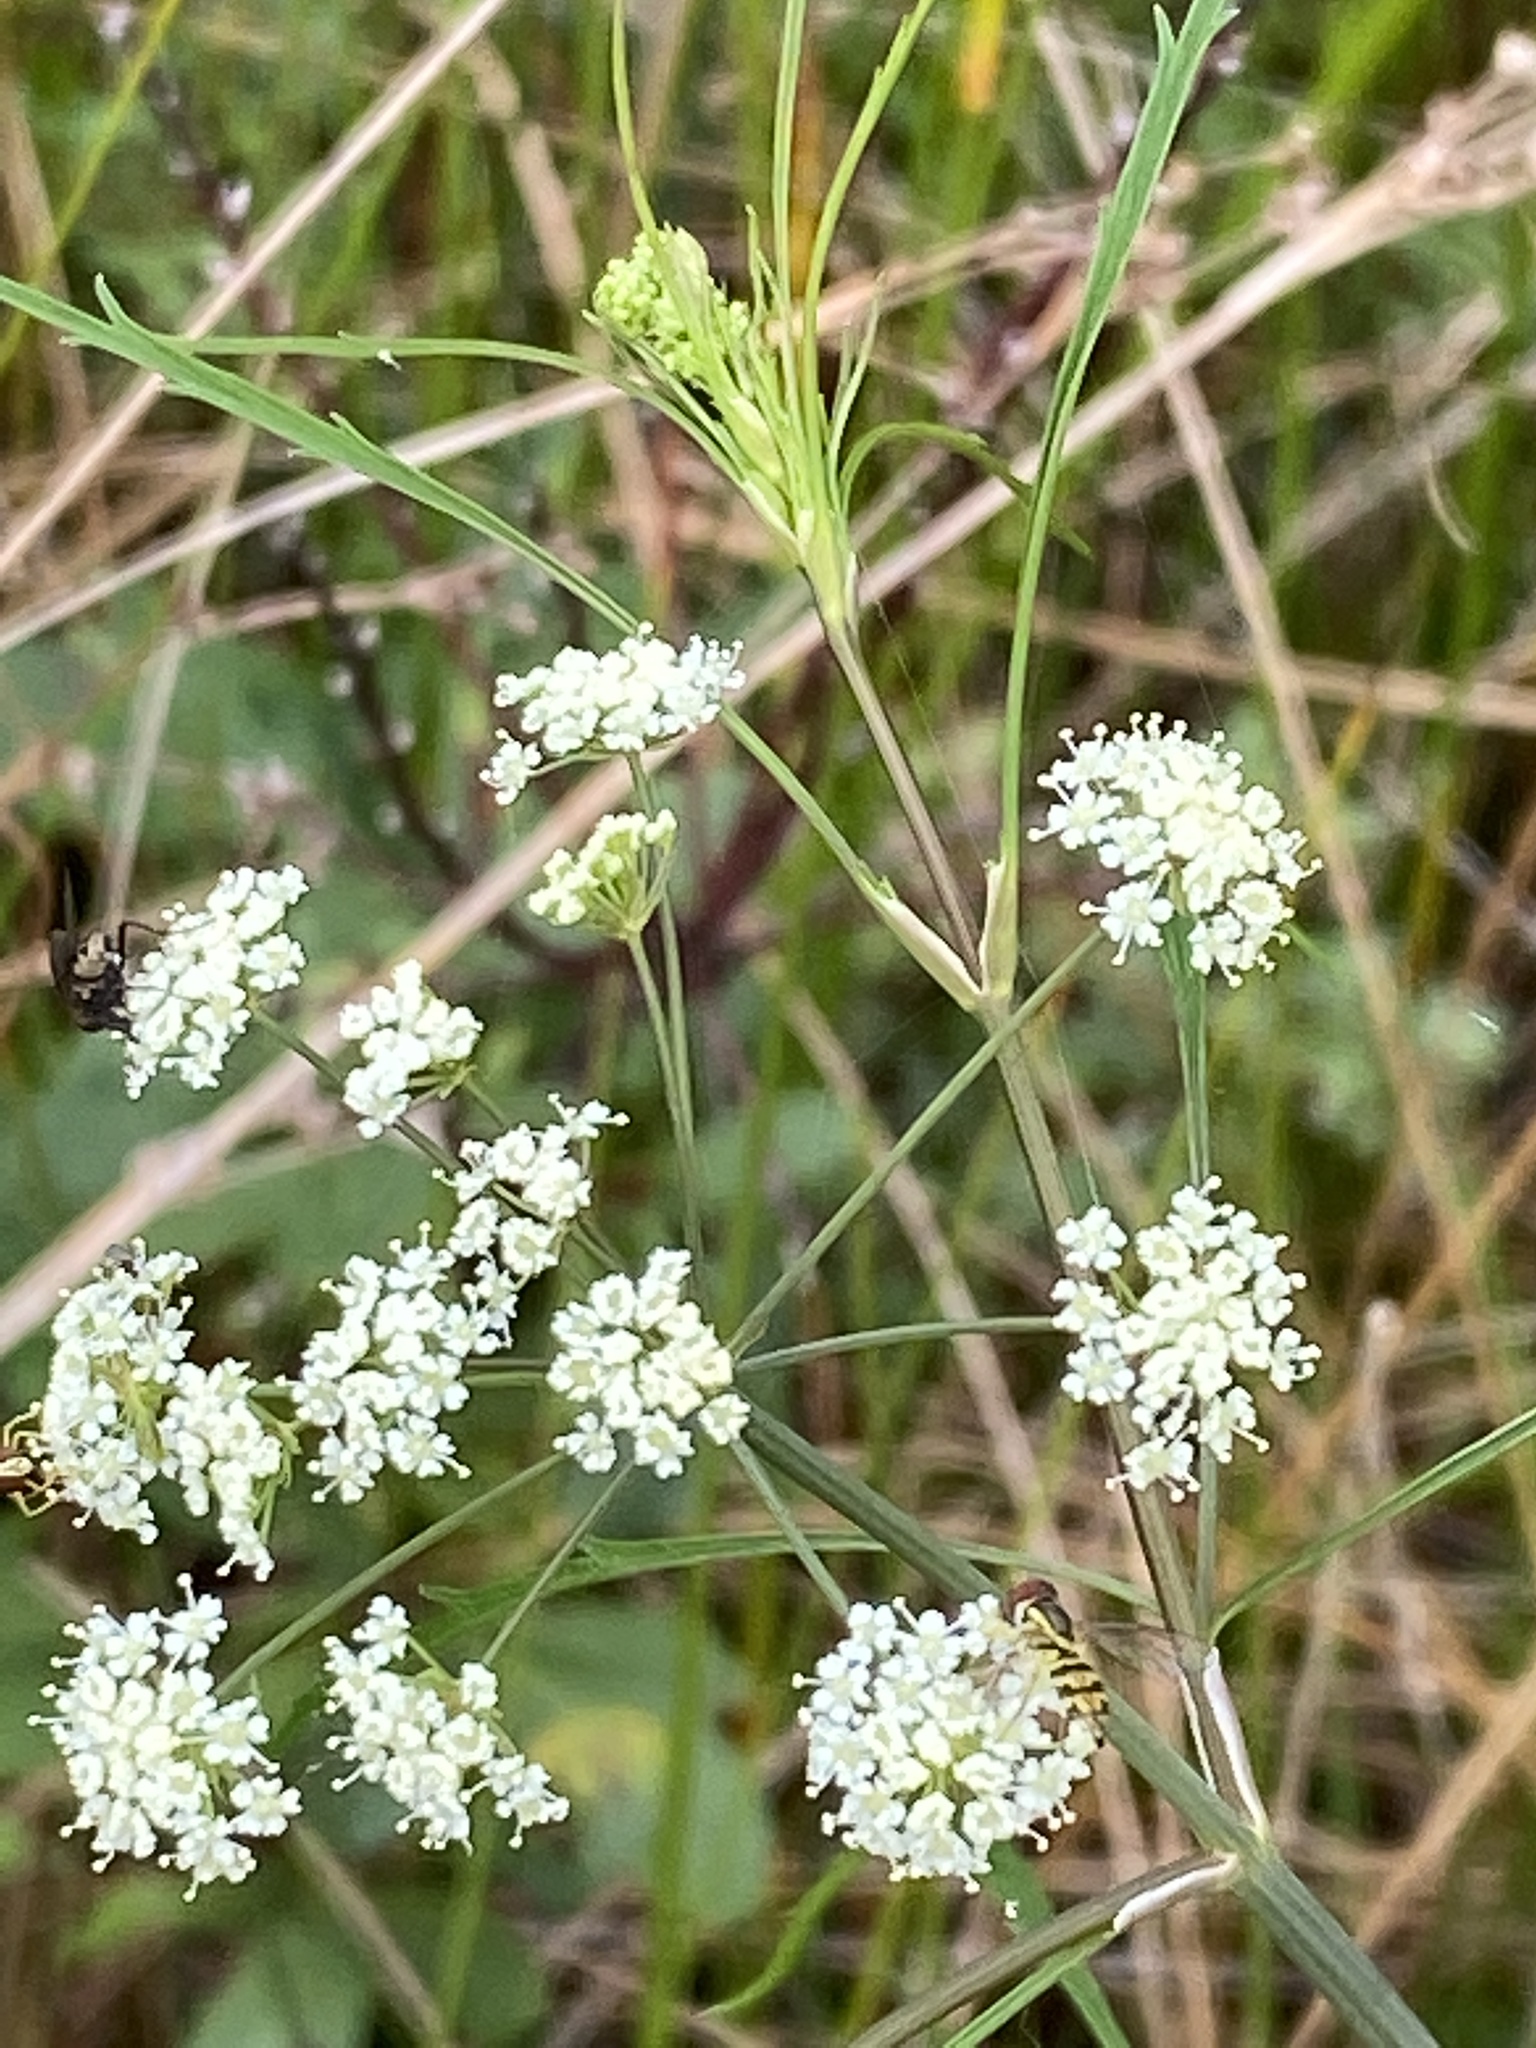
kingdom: Plantae
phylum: Tracheophyta
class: Magnoliopsida
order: Apiales
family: Apiaceae
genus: Cicuta
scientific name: Cicuta bulbifera
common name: Bulb-bearing water-hemlock
